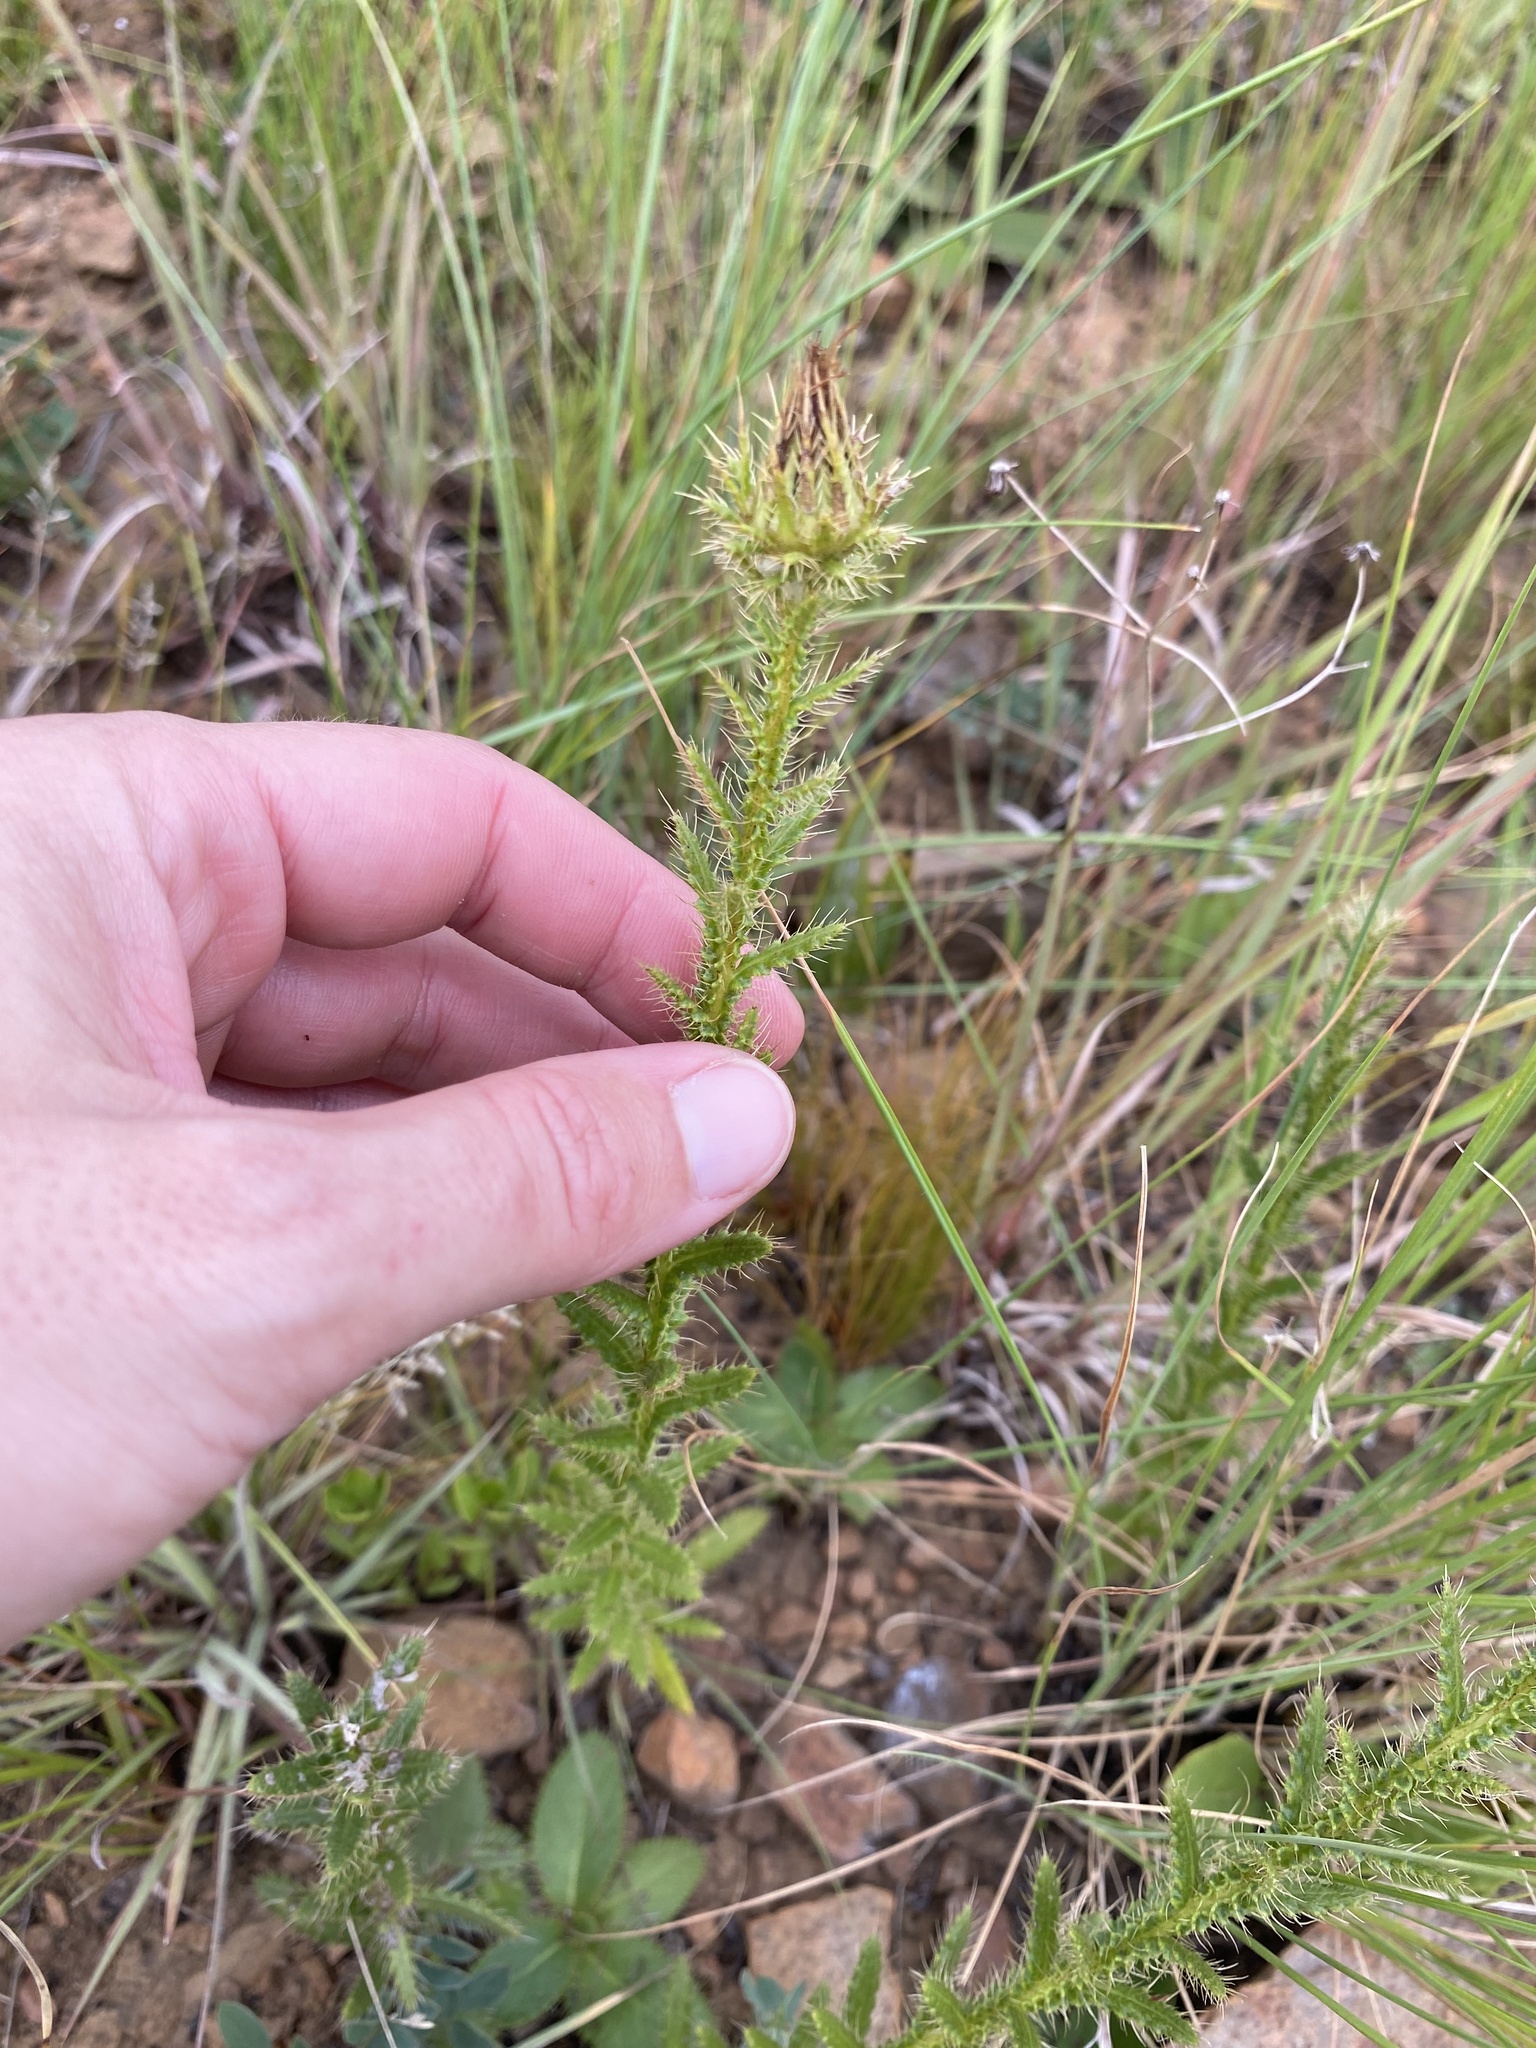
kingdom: Plantae
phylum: Tracheophyta
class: Magnoliopsida
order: Asterales
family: Asteraceae
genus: Berkheya
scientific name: Berkheya echinacea
